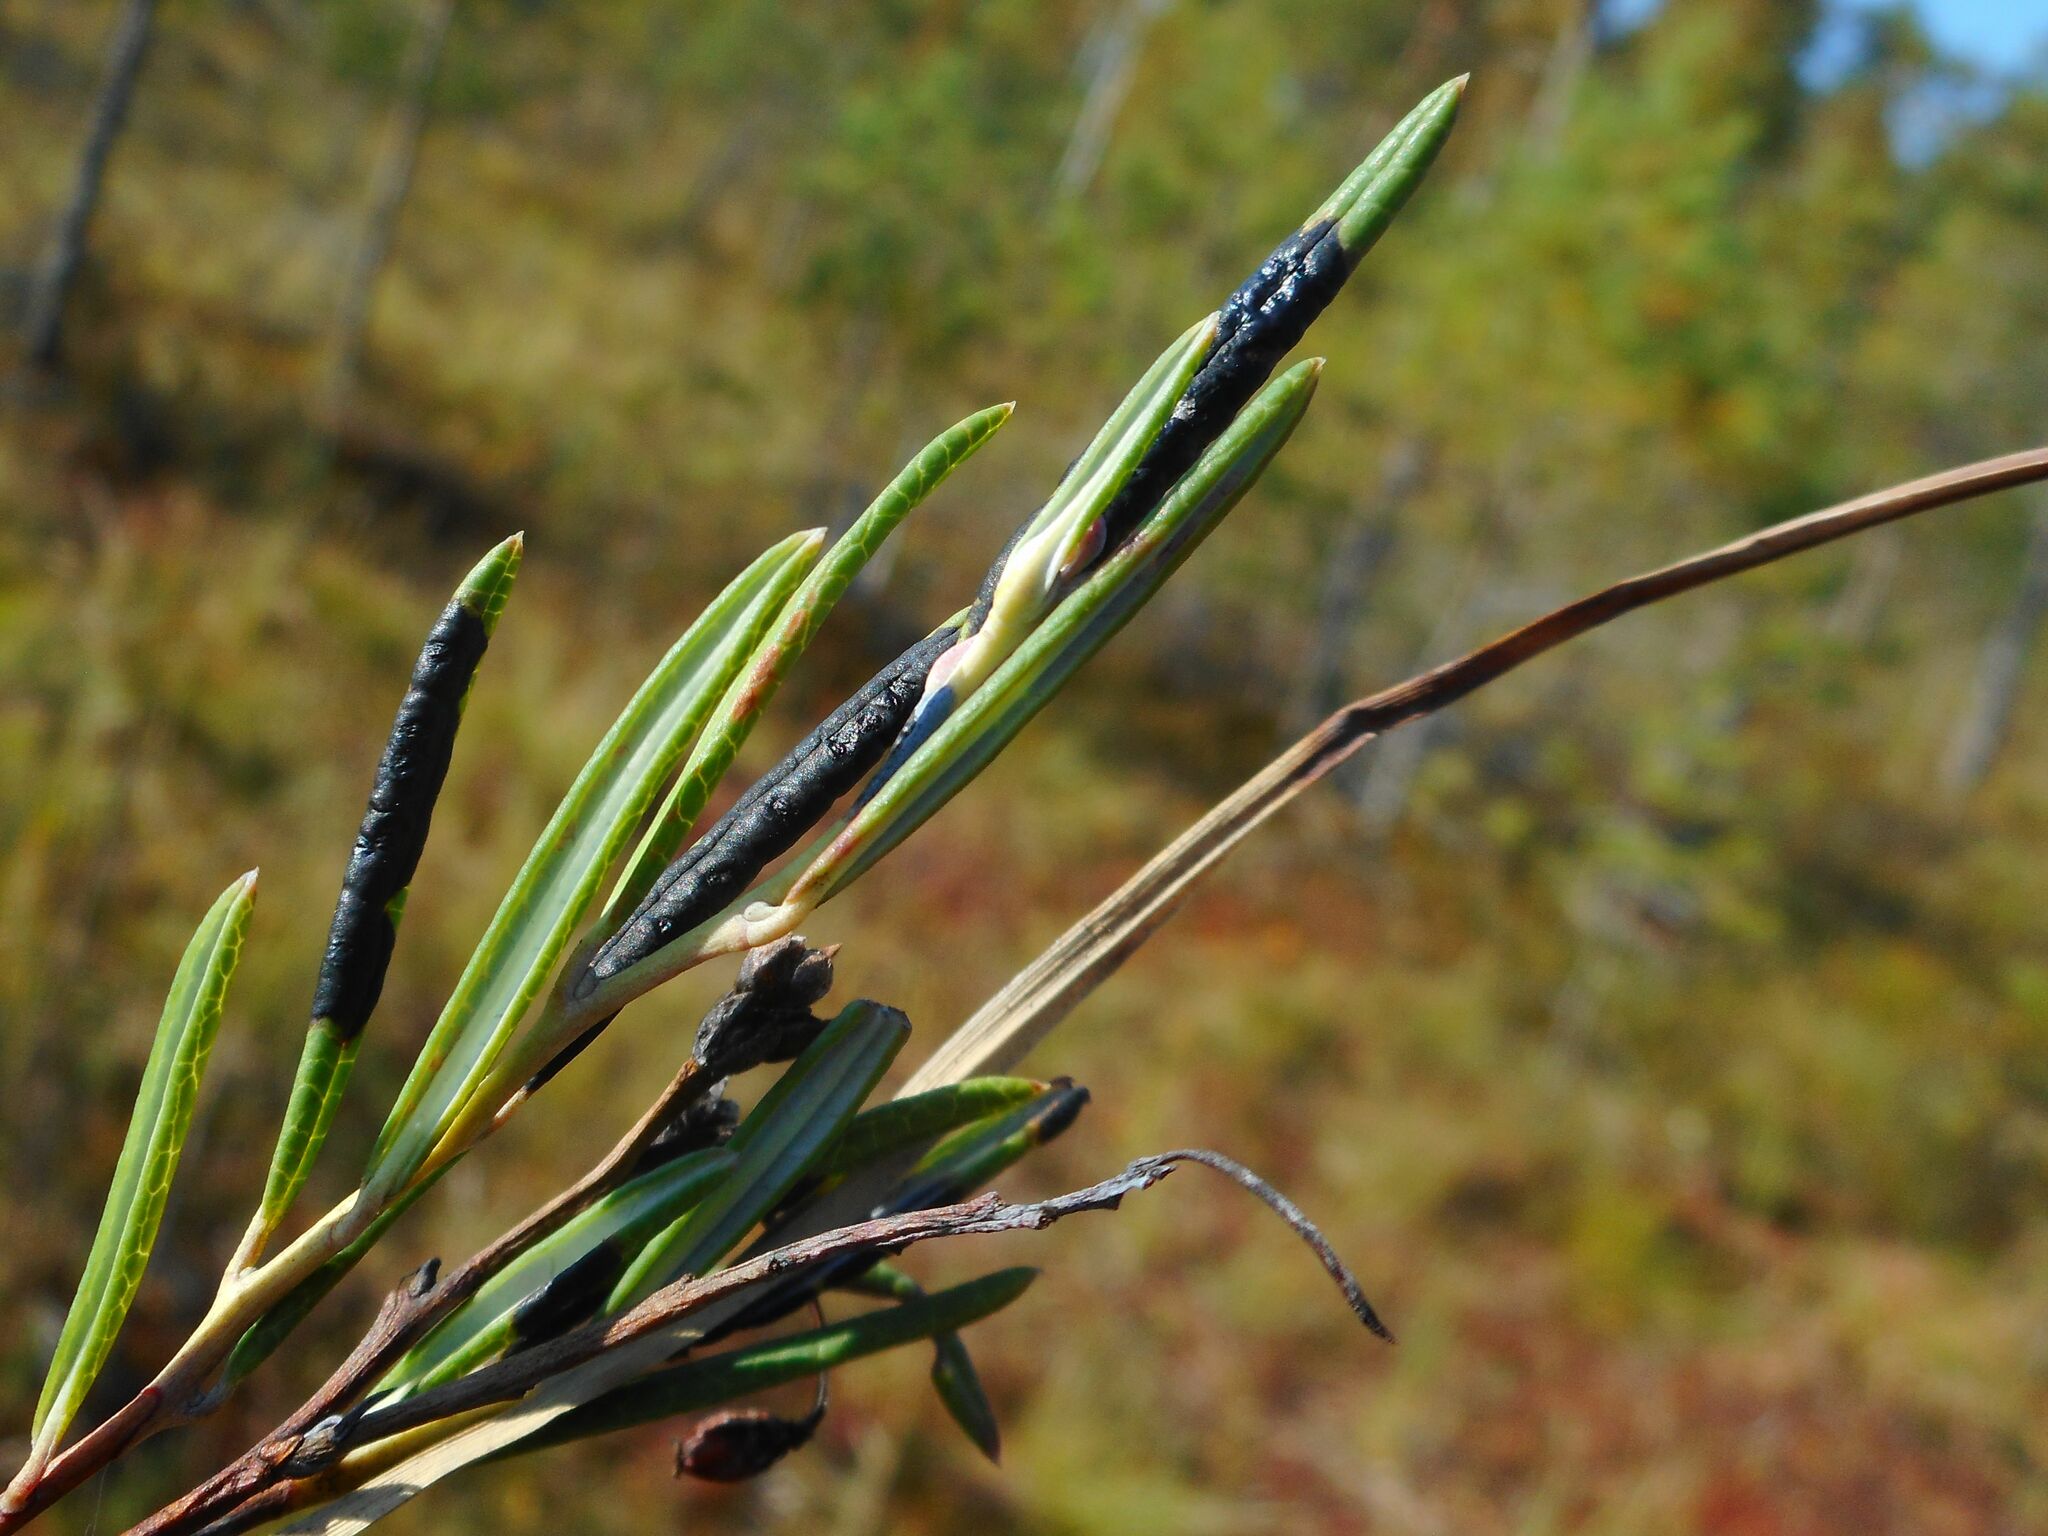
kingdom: Fungi
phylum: Ascomycota
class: Leotiomycetes
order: Rhytismatales
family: Rhytismataceae
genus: Rhytisma
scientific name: Rhytisma andromedae
